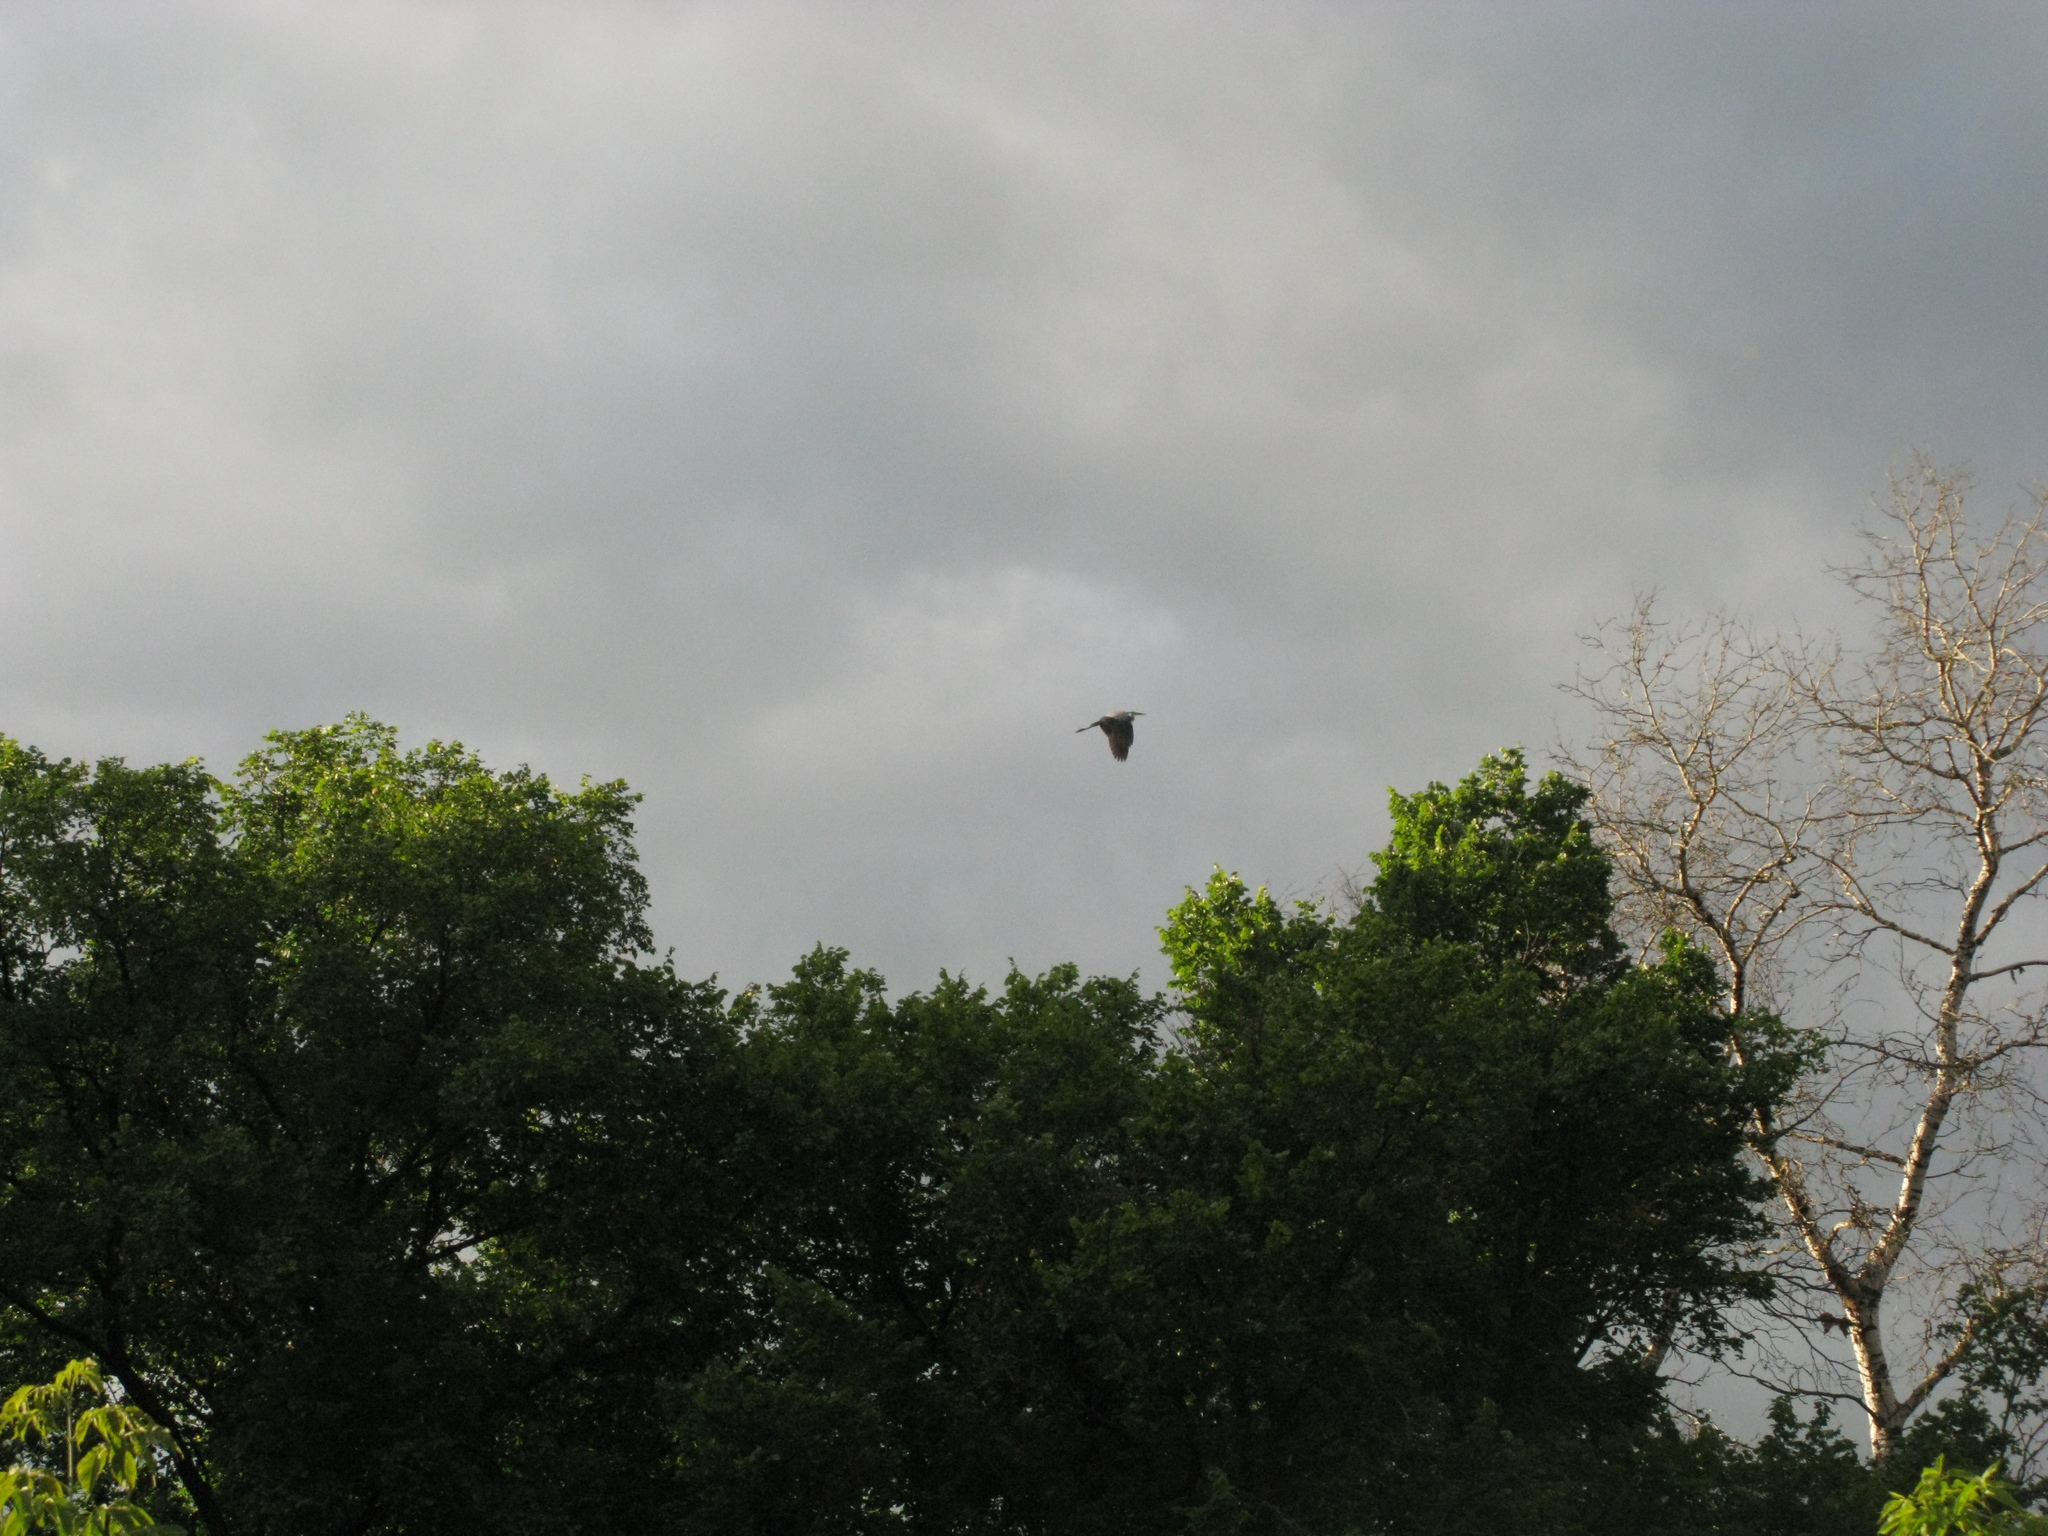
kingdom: Animalia
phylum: Chordata
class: Aves
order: Pelecaniformes
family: Ardeidae
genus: Ardea
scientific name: Ardea cinerea
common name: Grey heron
